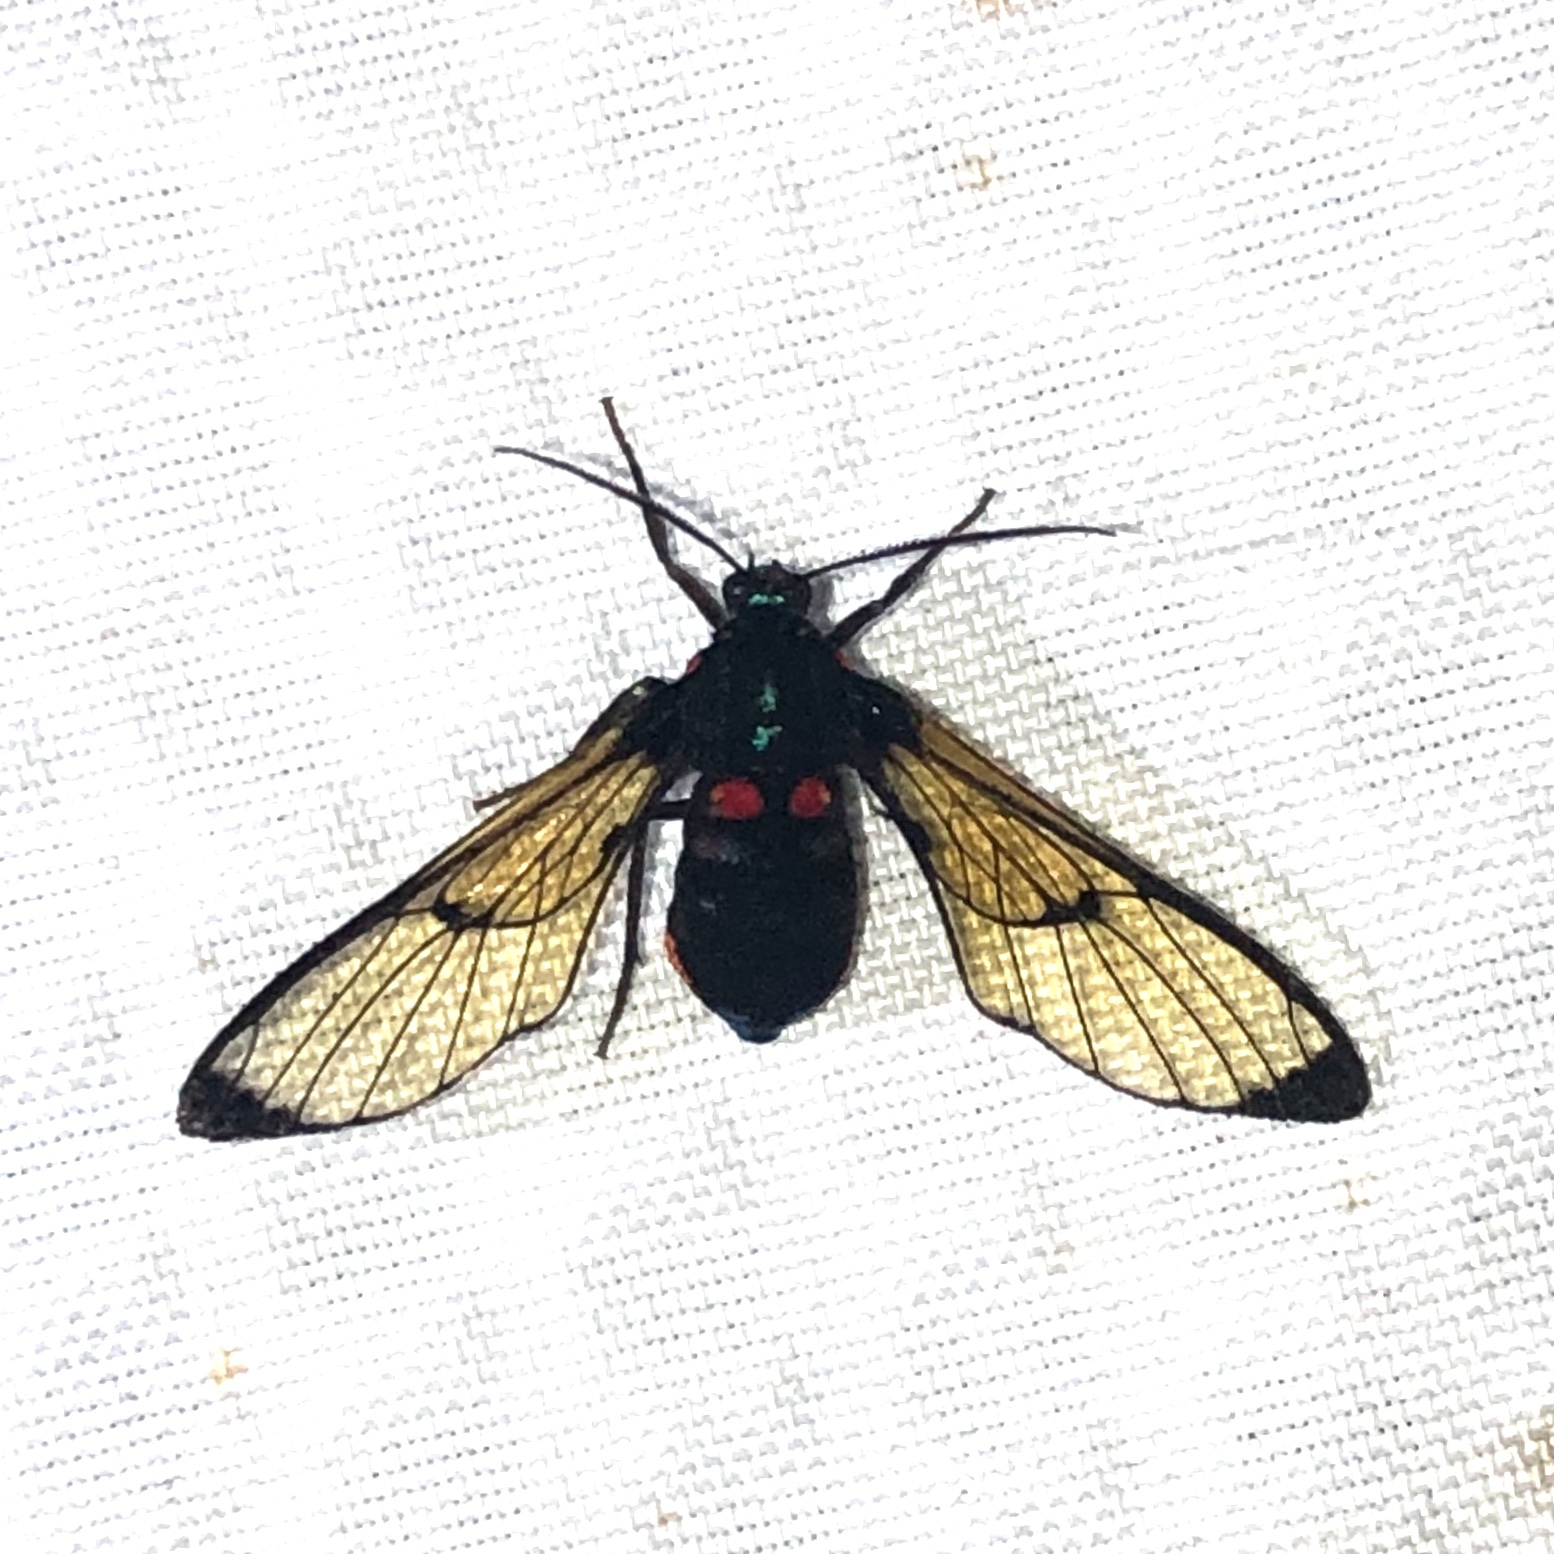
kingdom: Animalia
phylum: Arthropoda
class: Insecta
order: Lepidoptera
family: Erebidae
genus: Gymnelia
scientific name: Gymnelia frutera
